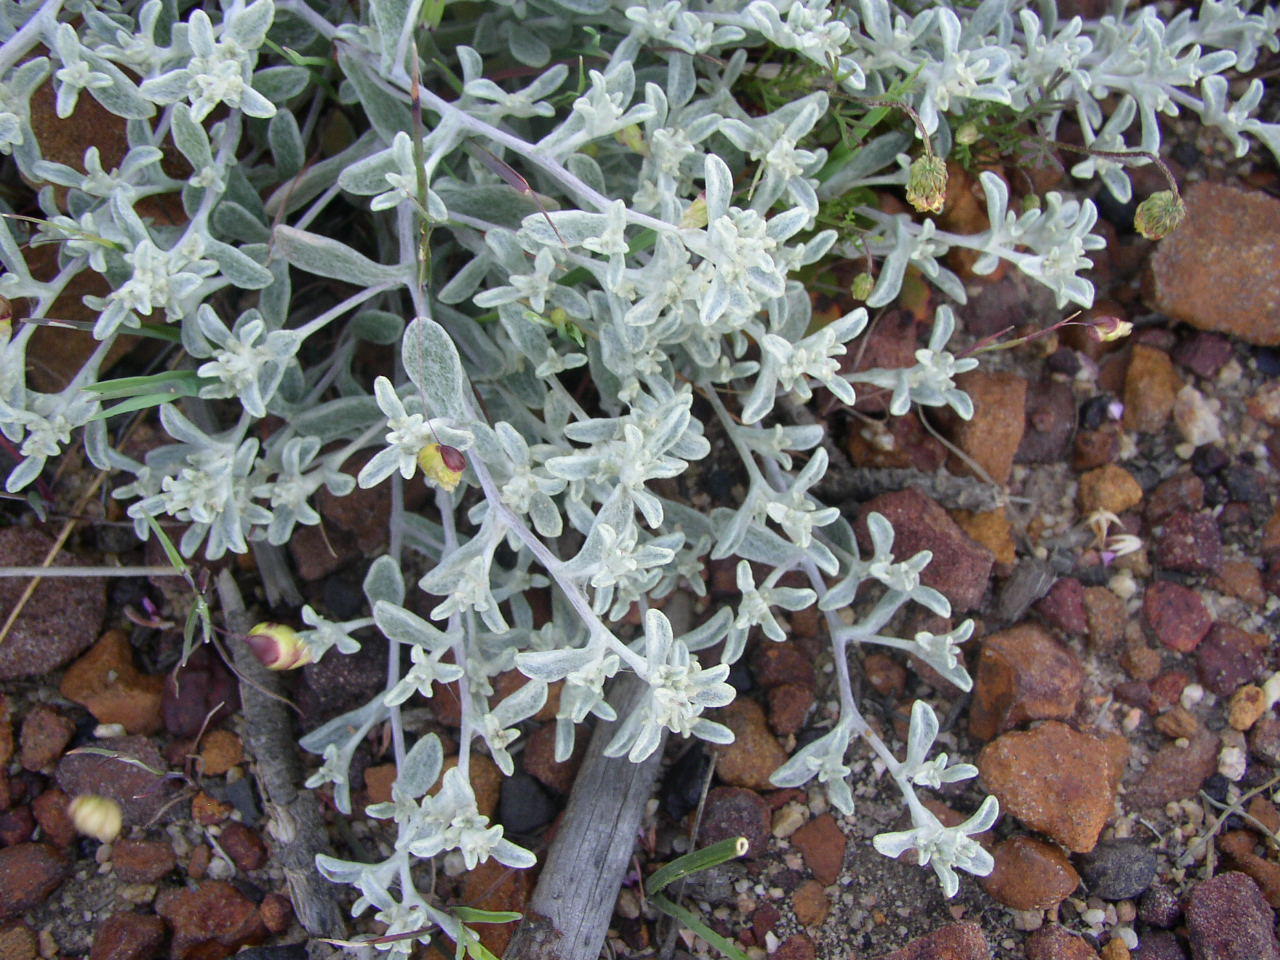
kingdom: Plantae
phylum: Tracheophyta
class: Magnoliopsida
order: Asterales
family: Asteraceae
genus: Helichrysum
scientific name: Helichrysum litorale
